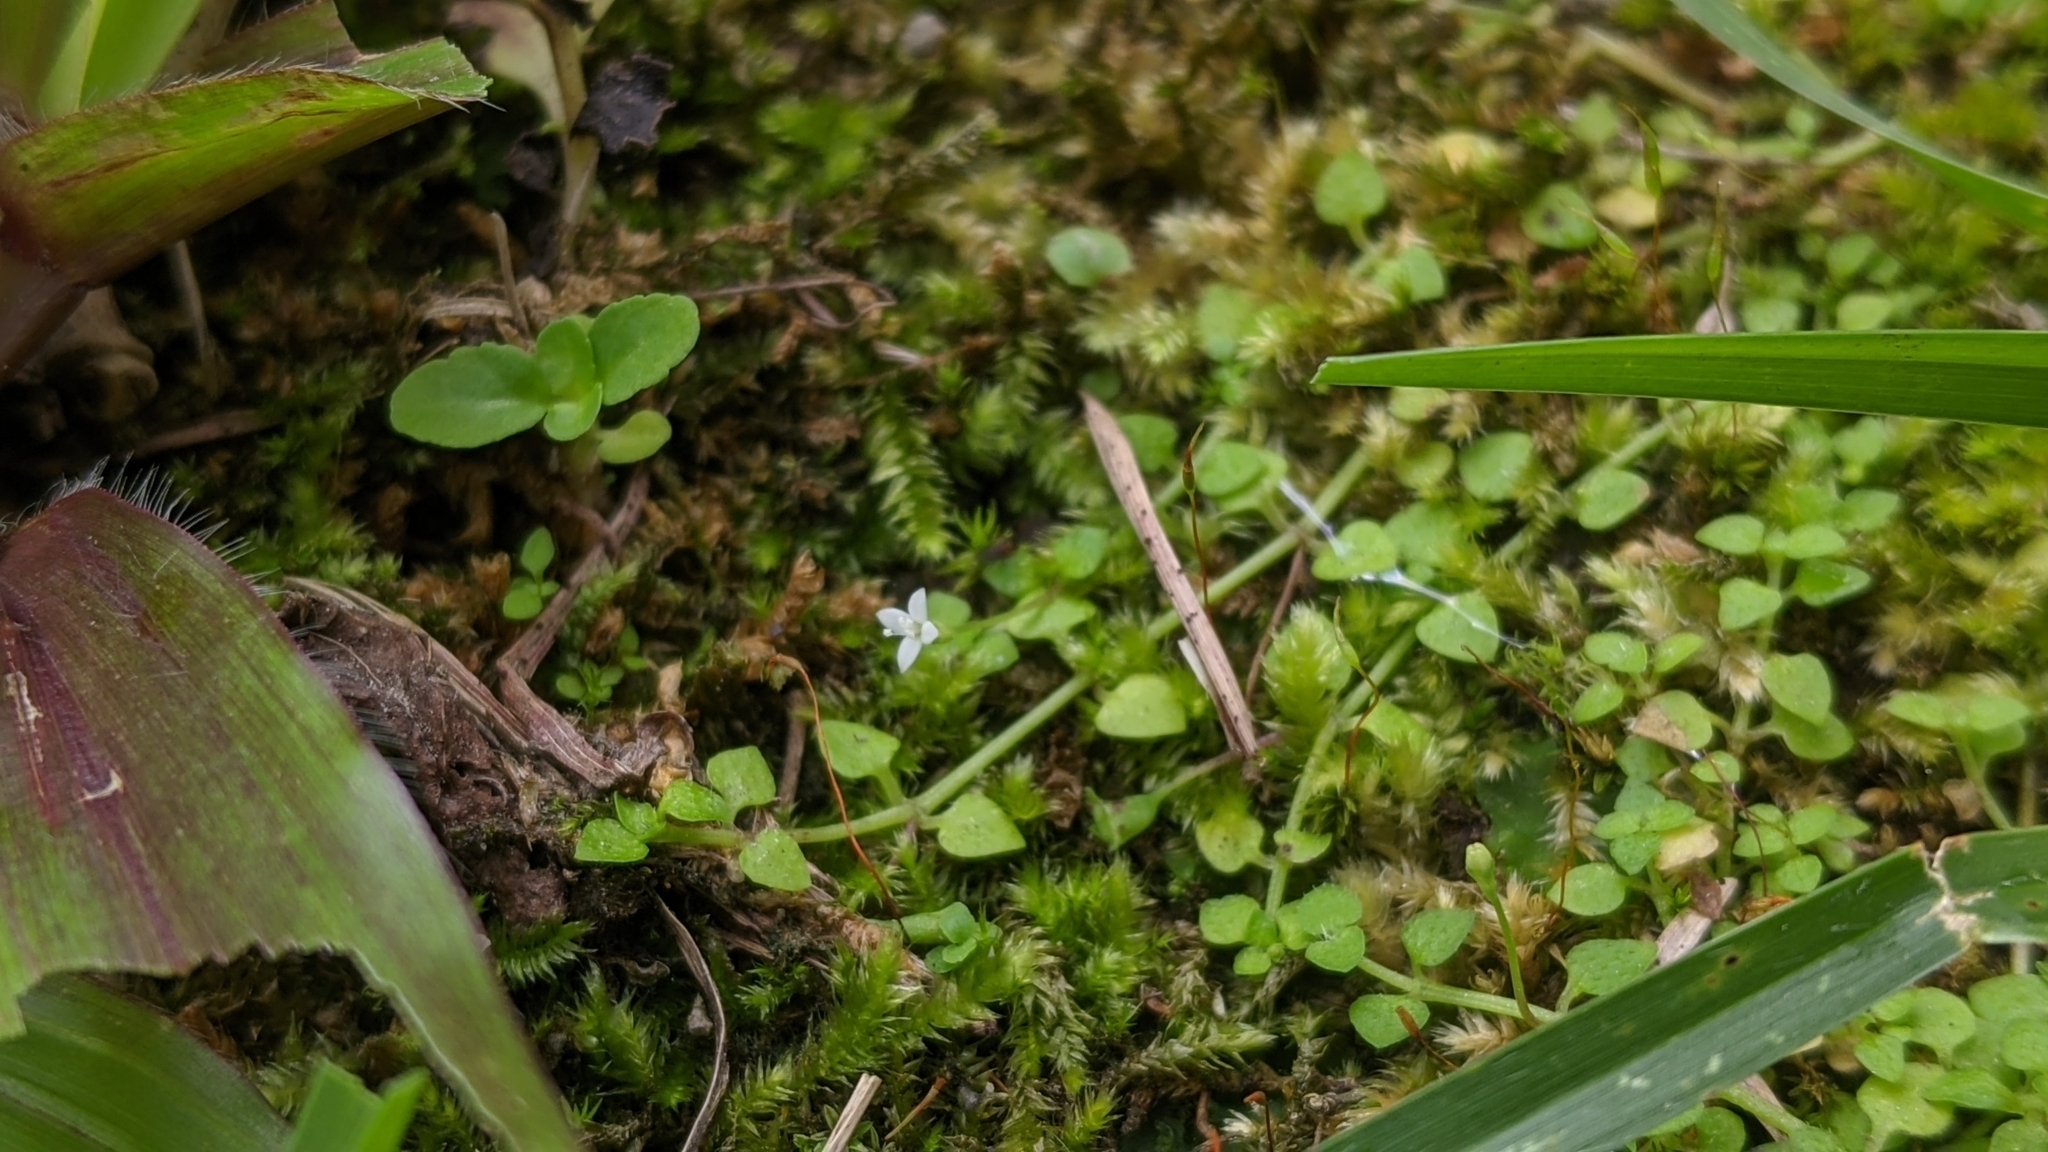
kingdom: Plantae
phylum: Tracheophyta
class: Magnoliopsida
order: Gentianales
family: Rubiaceae
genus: Oldenlandiopsis
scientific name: Oldenlandiopsis callitrichoides
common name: Creeping-bluet
